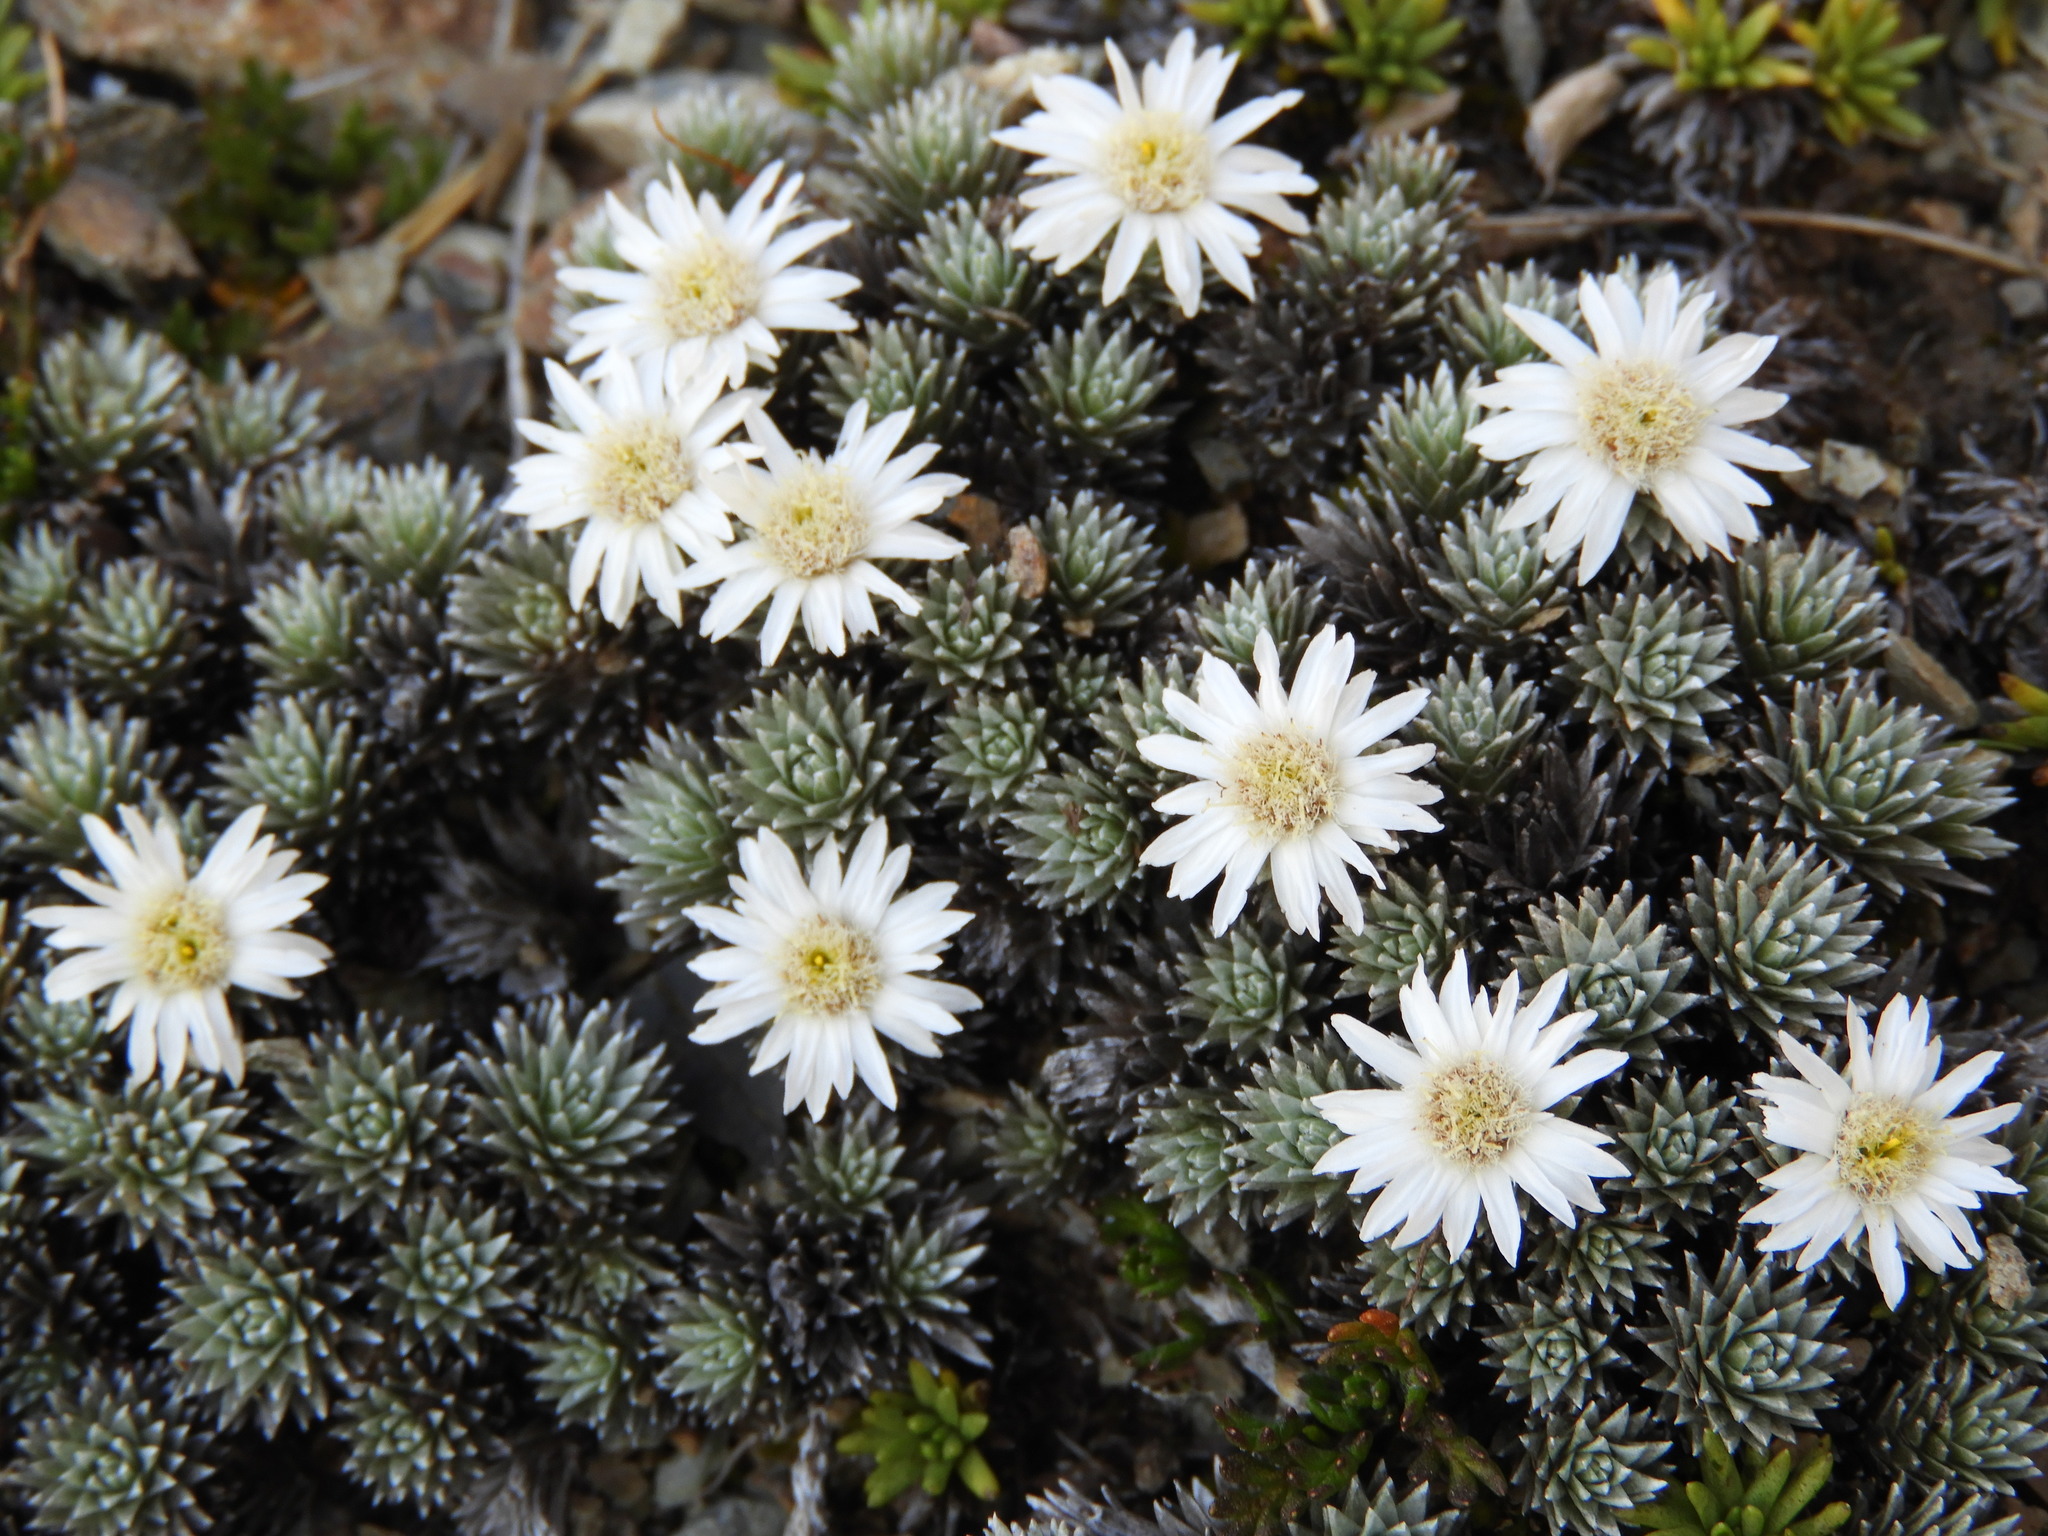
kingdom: Plantae
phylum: Tracheophyta
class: Magnoliopsida
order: Asterales
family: Asteraceae
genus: Raoulia
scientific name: Raoulia grandiflora
